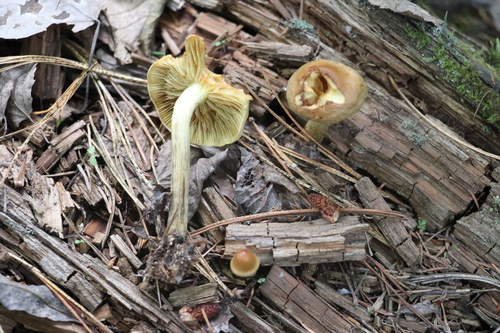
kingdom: Fungi
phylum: Basidiomycota
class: Agaricomycetes
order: Agaricales
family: Strophariaceae
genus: Pholiota
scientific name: Pholiota spumosa
